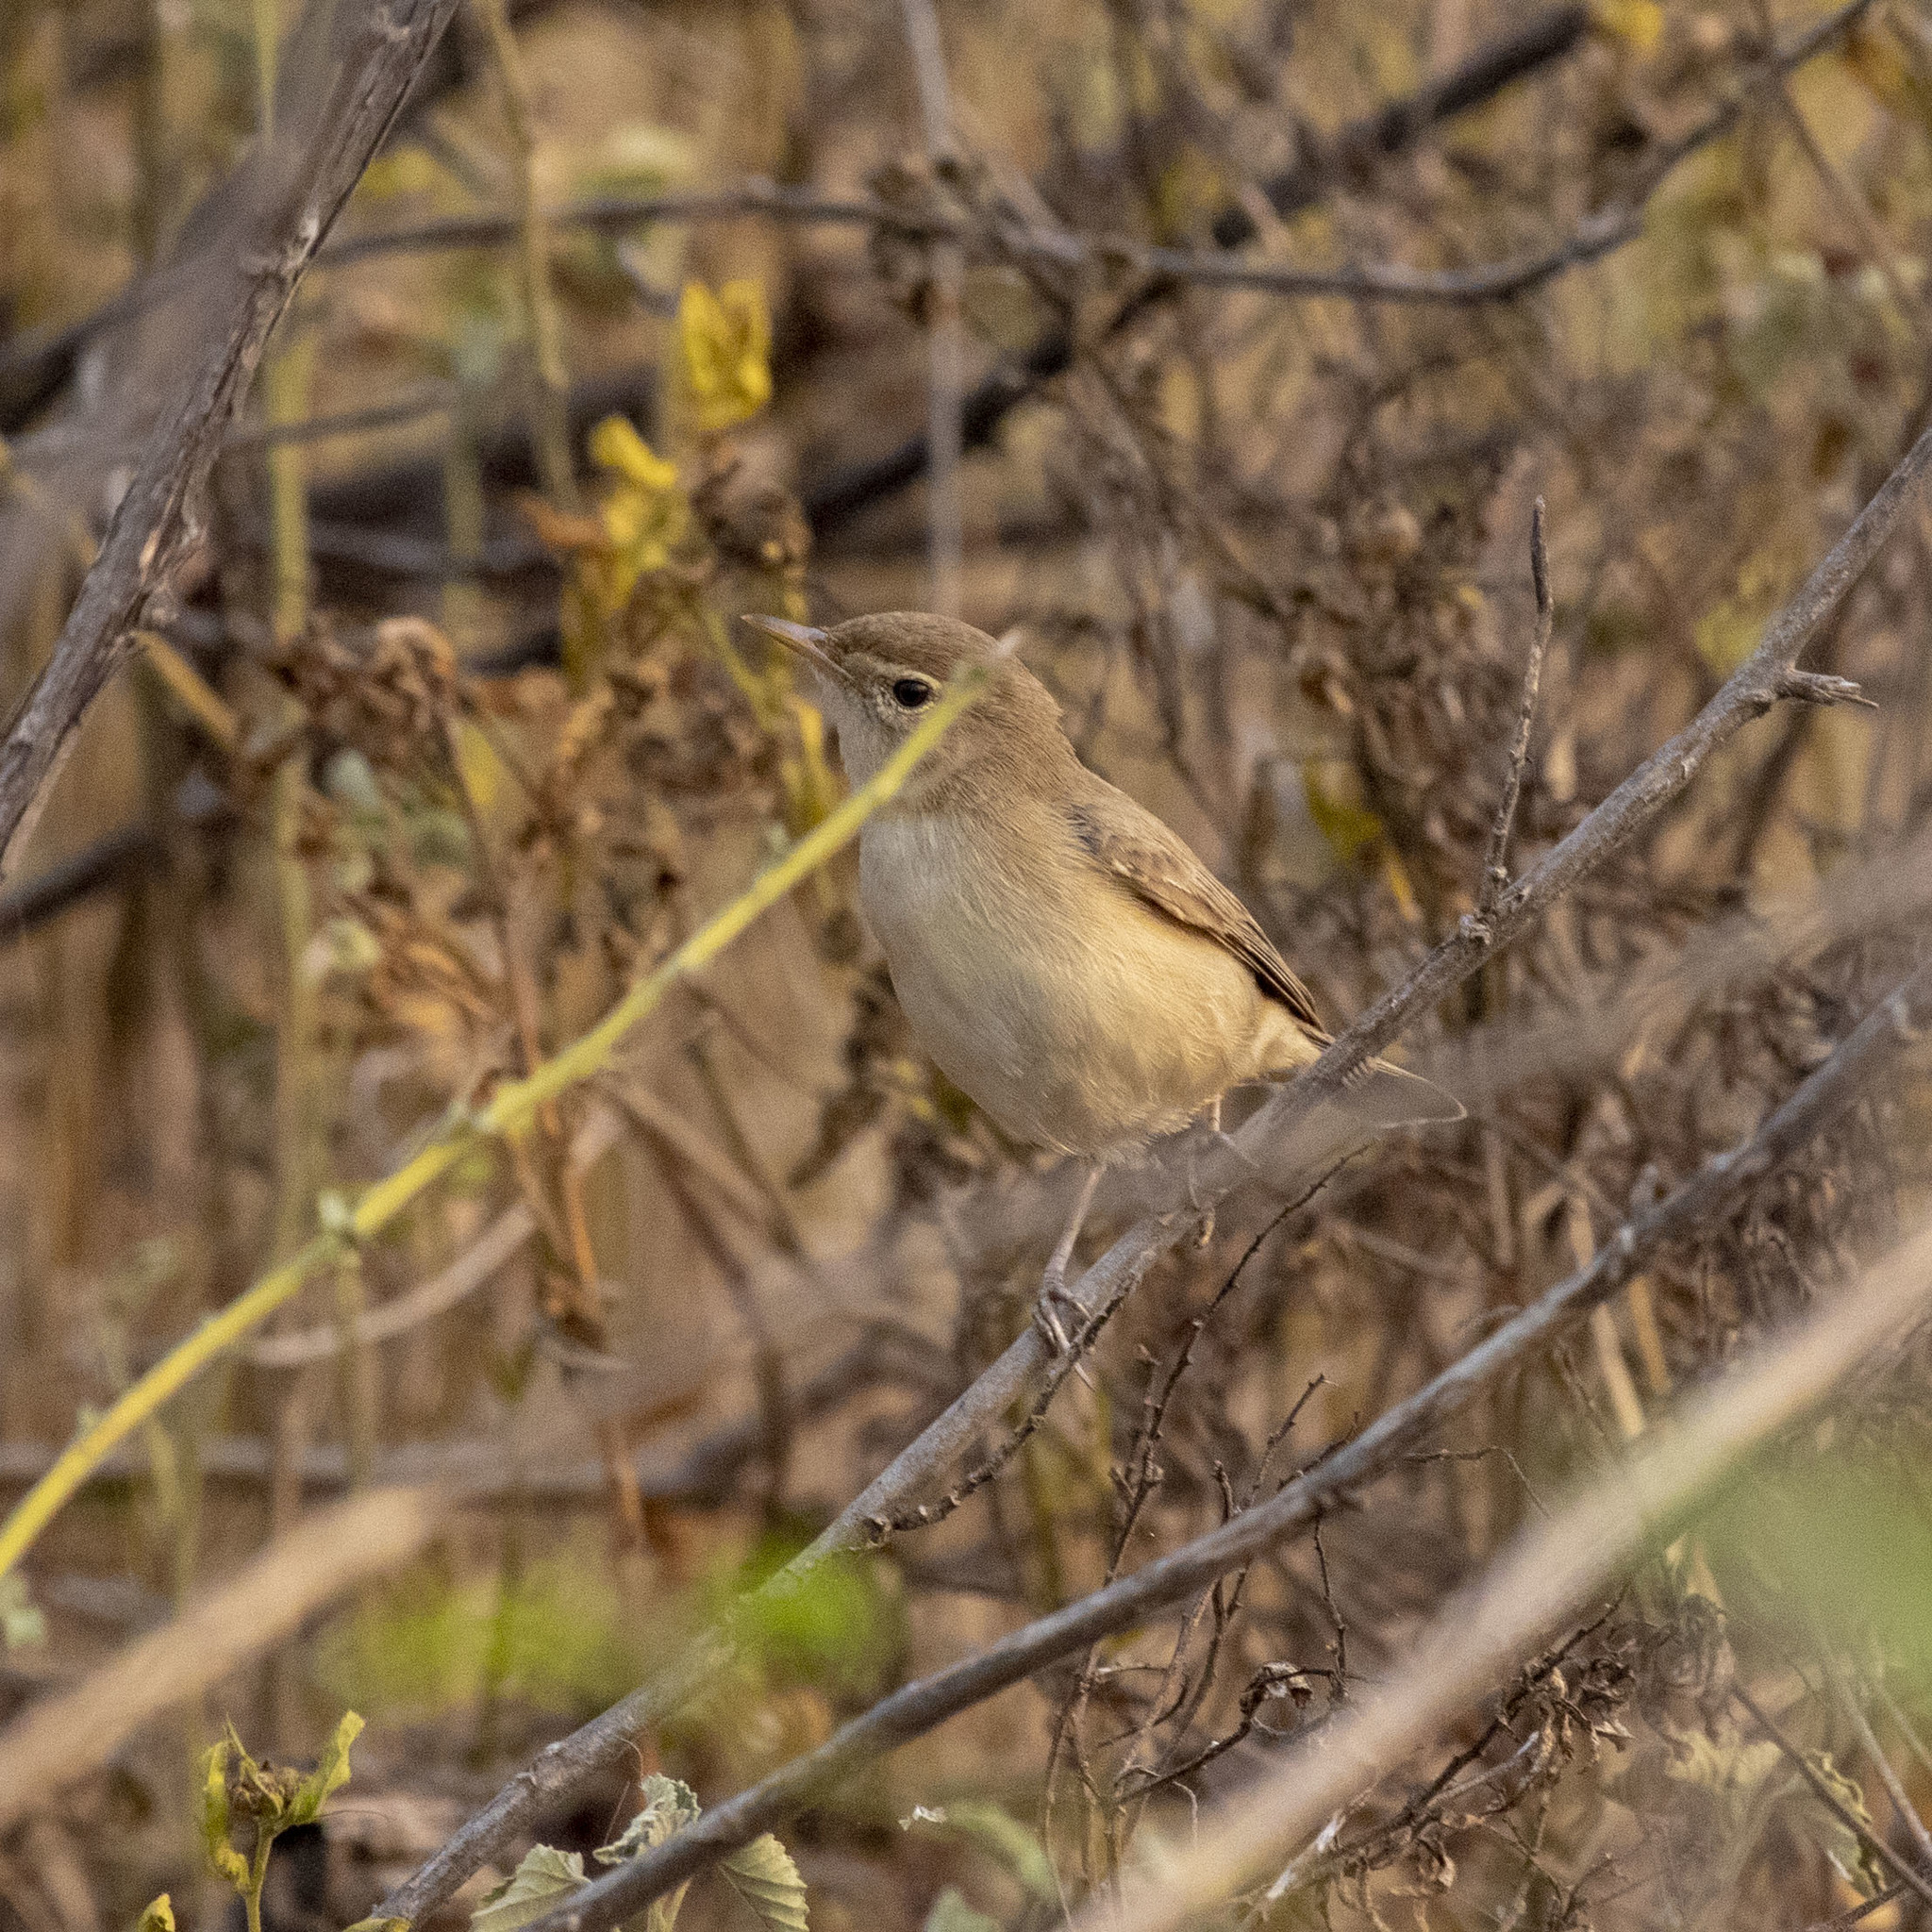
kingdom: Animalia
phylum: Chordata
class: Aves
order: Passeriformes
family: Acrocephalidae
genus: Iduna
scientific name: Iduna caligata
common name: Booted warbler
